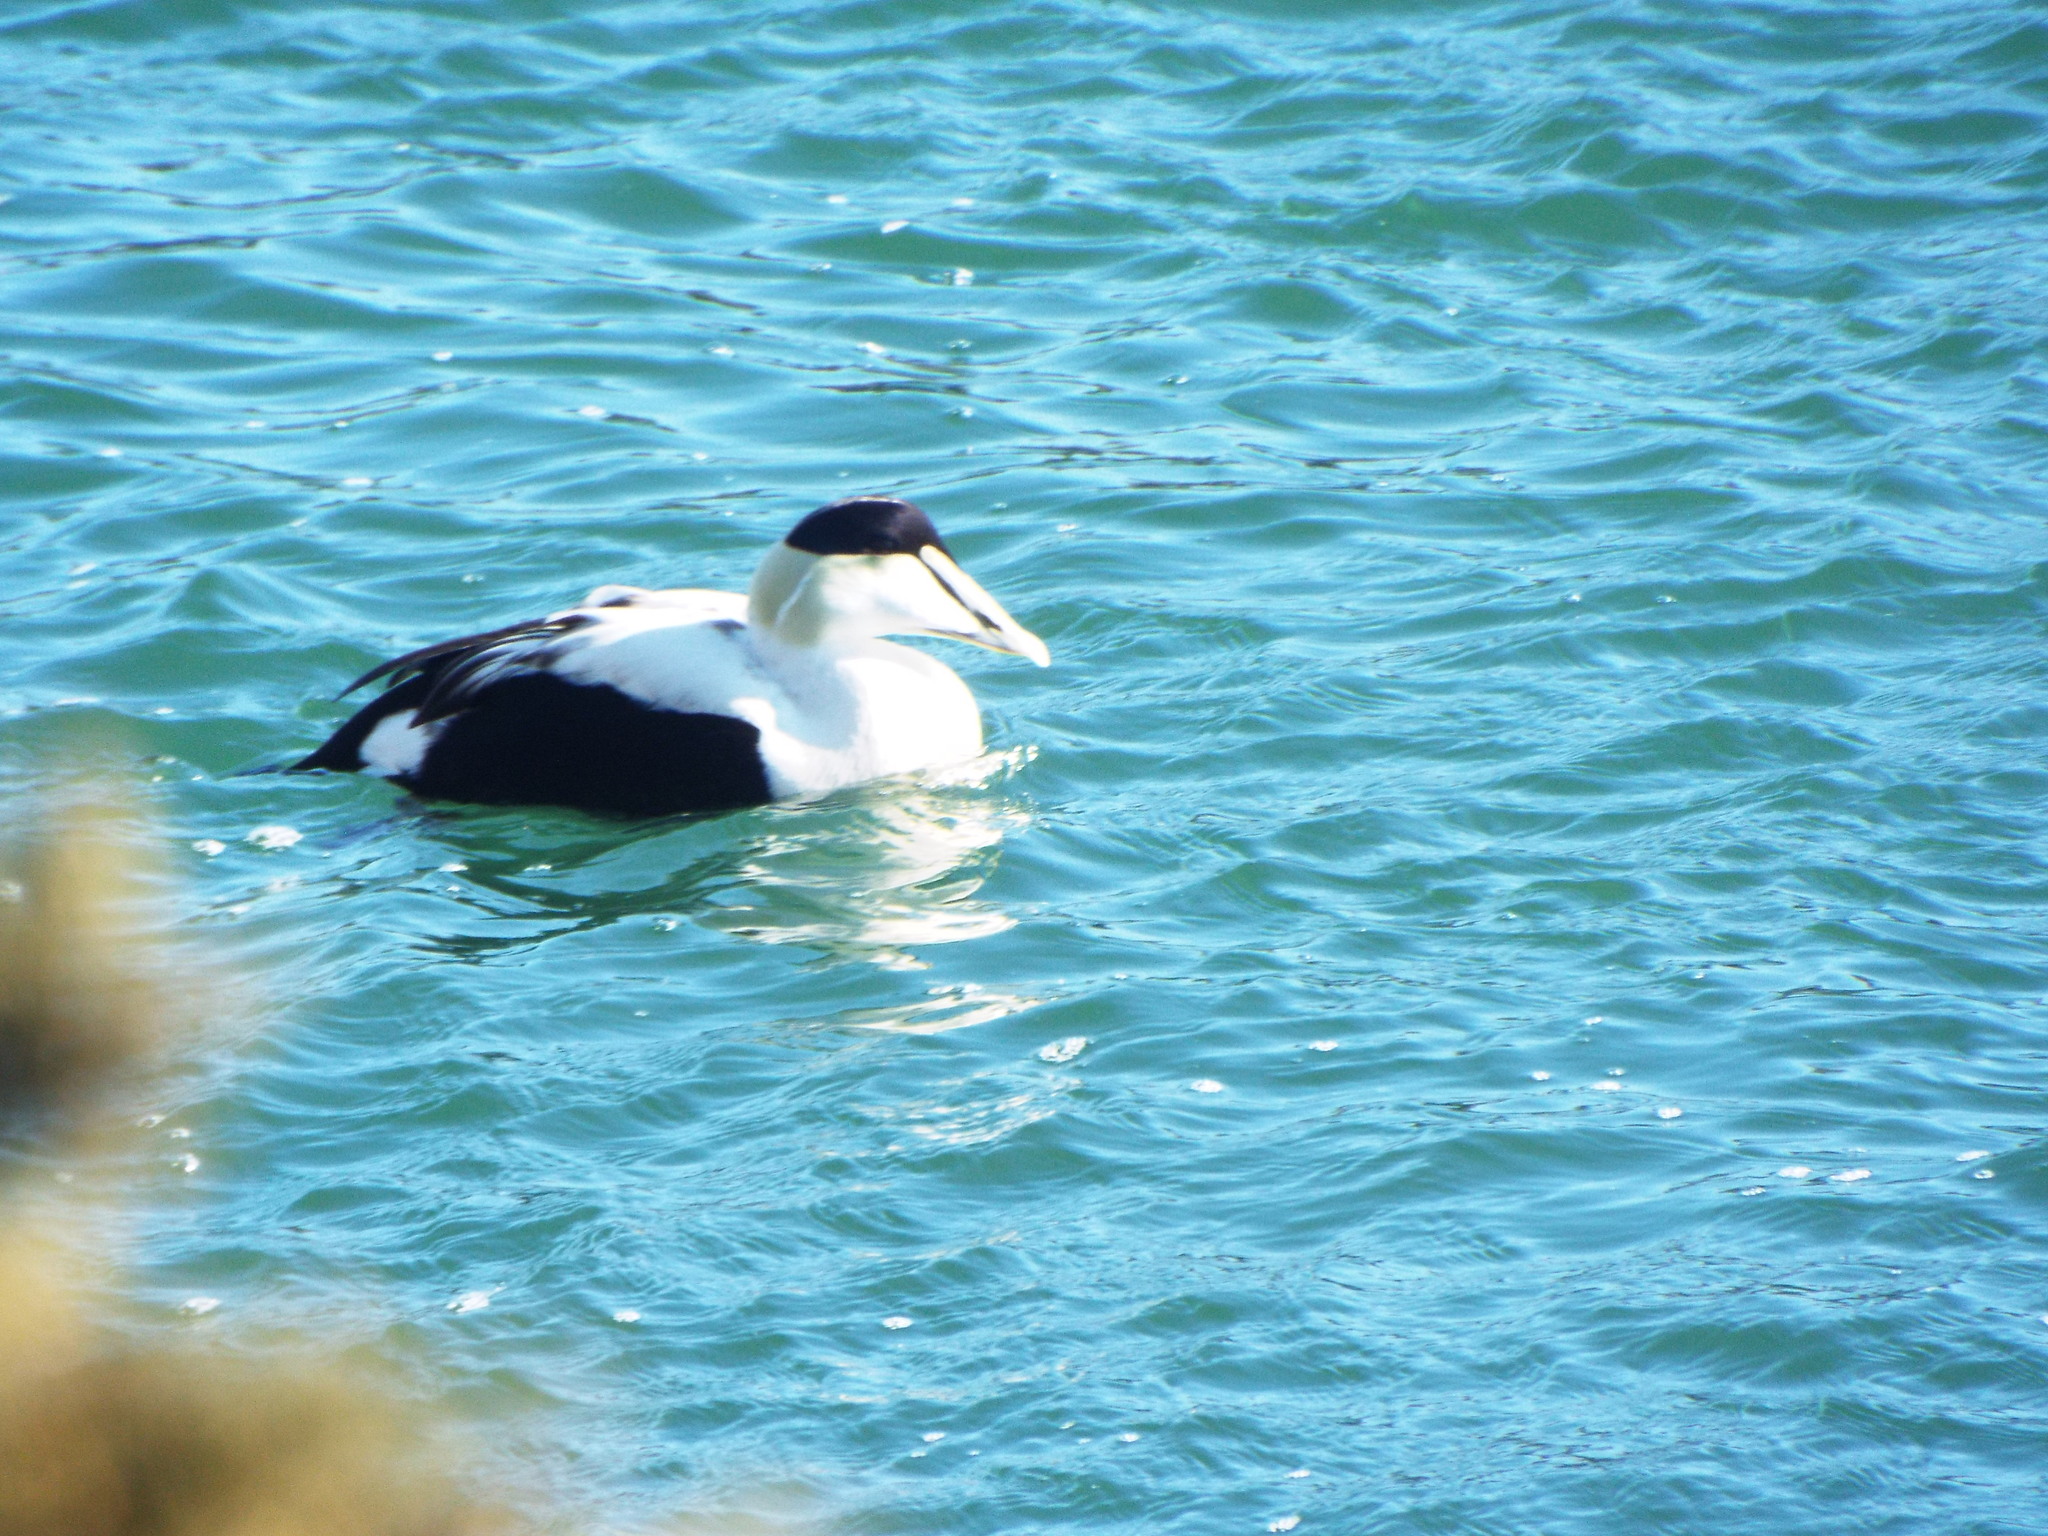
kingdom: Animalia
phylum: Chordata
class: Aves
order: Anseriformes
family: Anatidae
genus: Somateria
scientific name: Somateria mollissima
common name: Common eider
